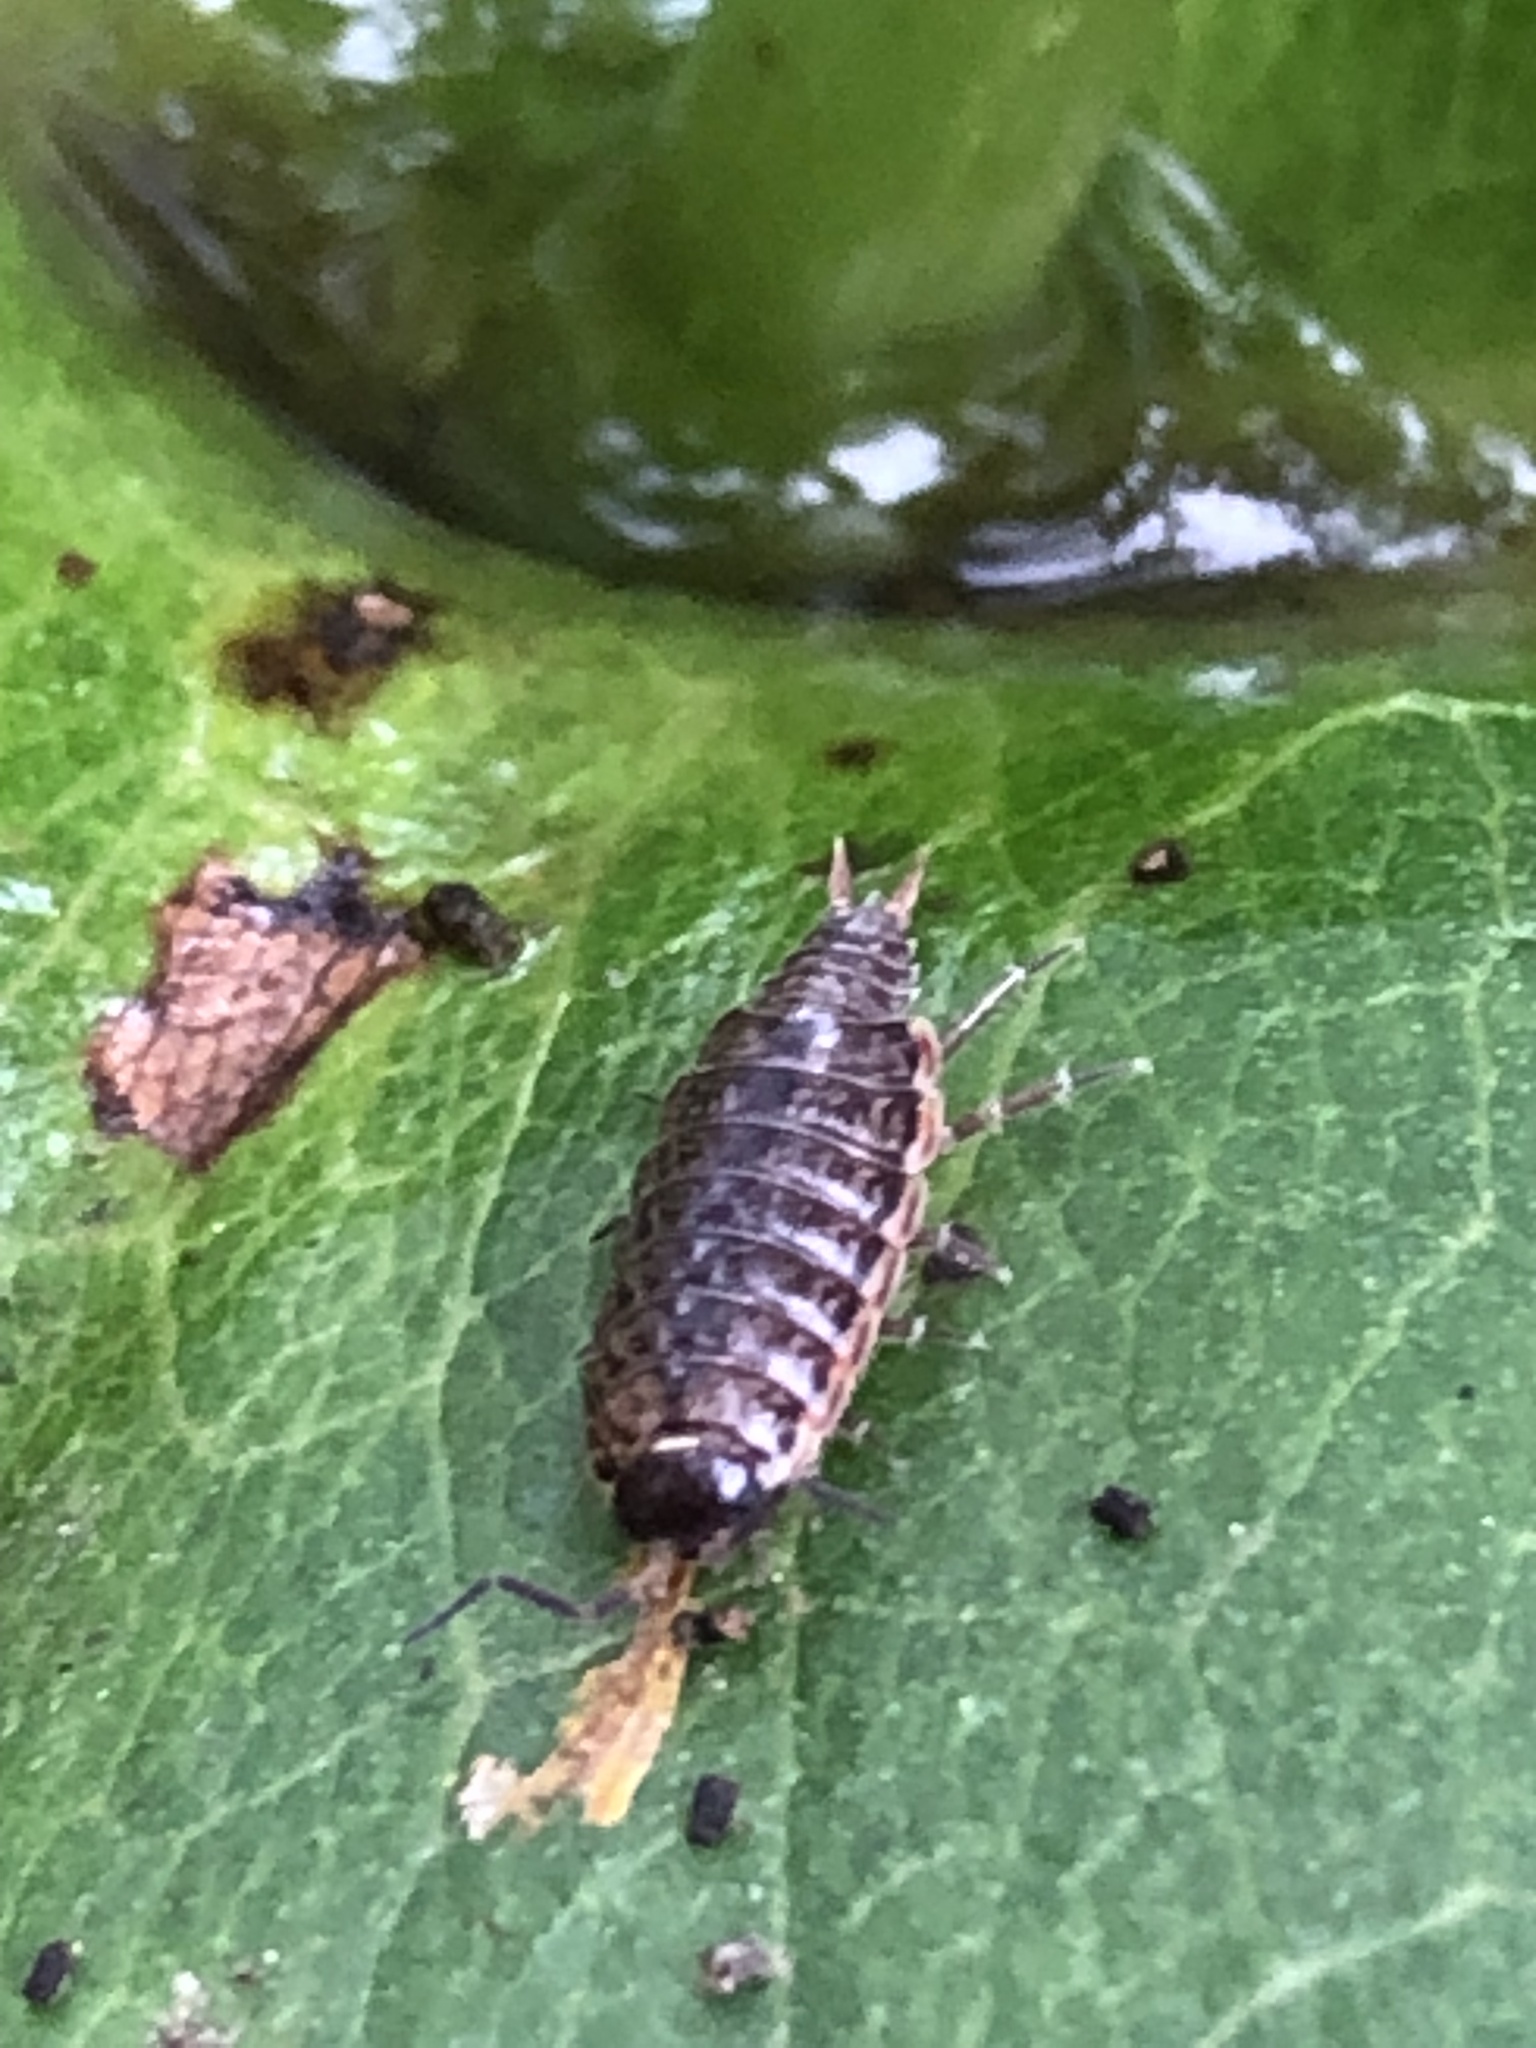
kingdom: Animalia
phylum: Arthropoda
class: Malacostraca
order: Isopoda
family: Philosciidae
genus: Philoscia
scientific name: Philoscia muscorum
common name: Common striped woodlouse
